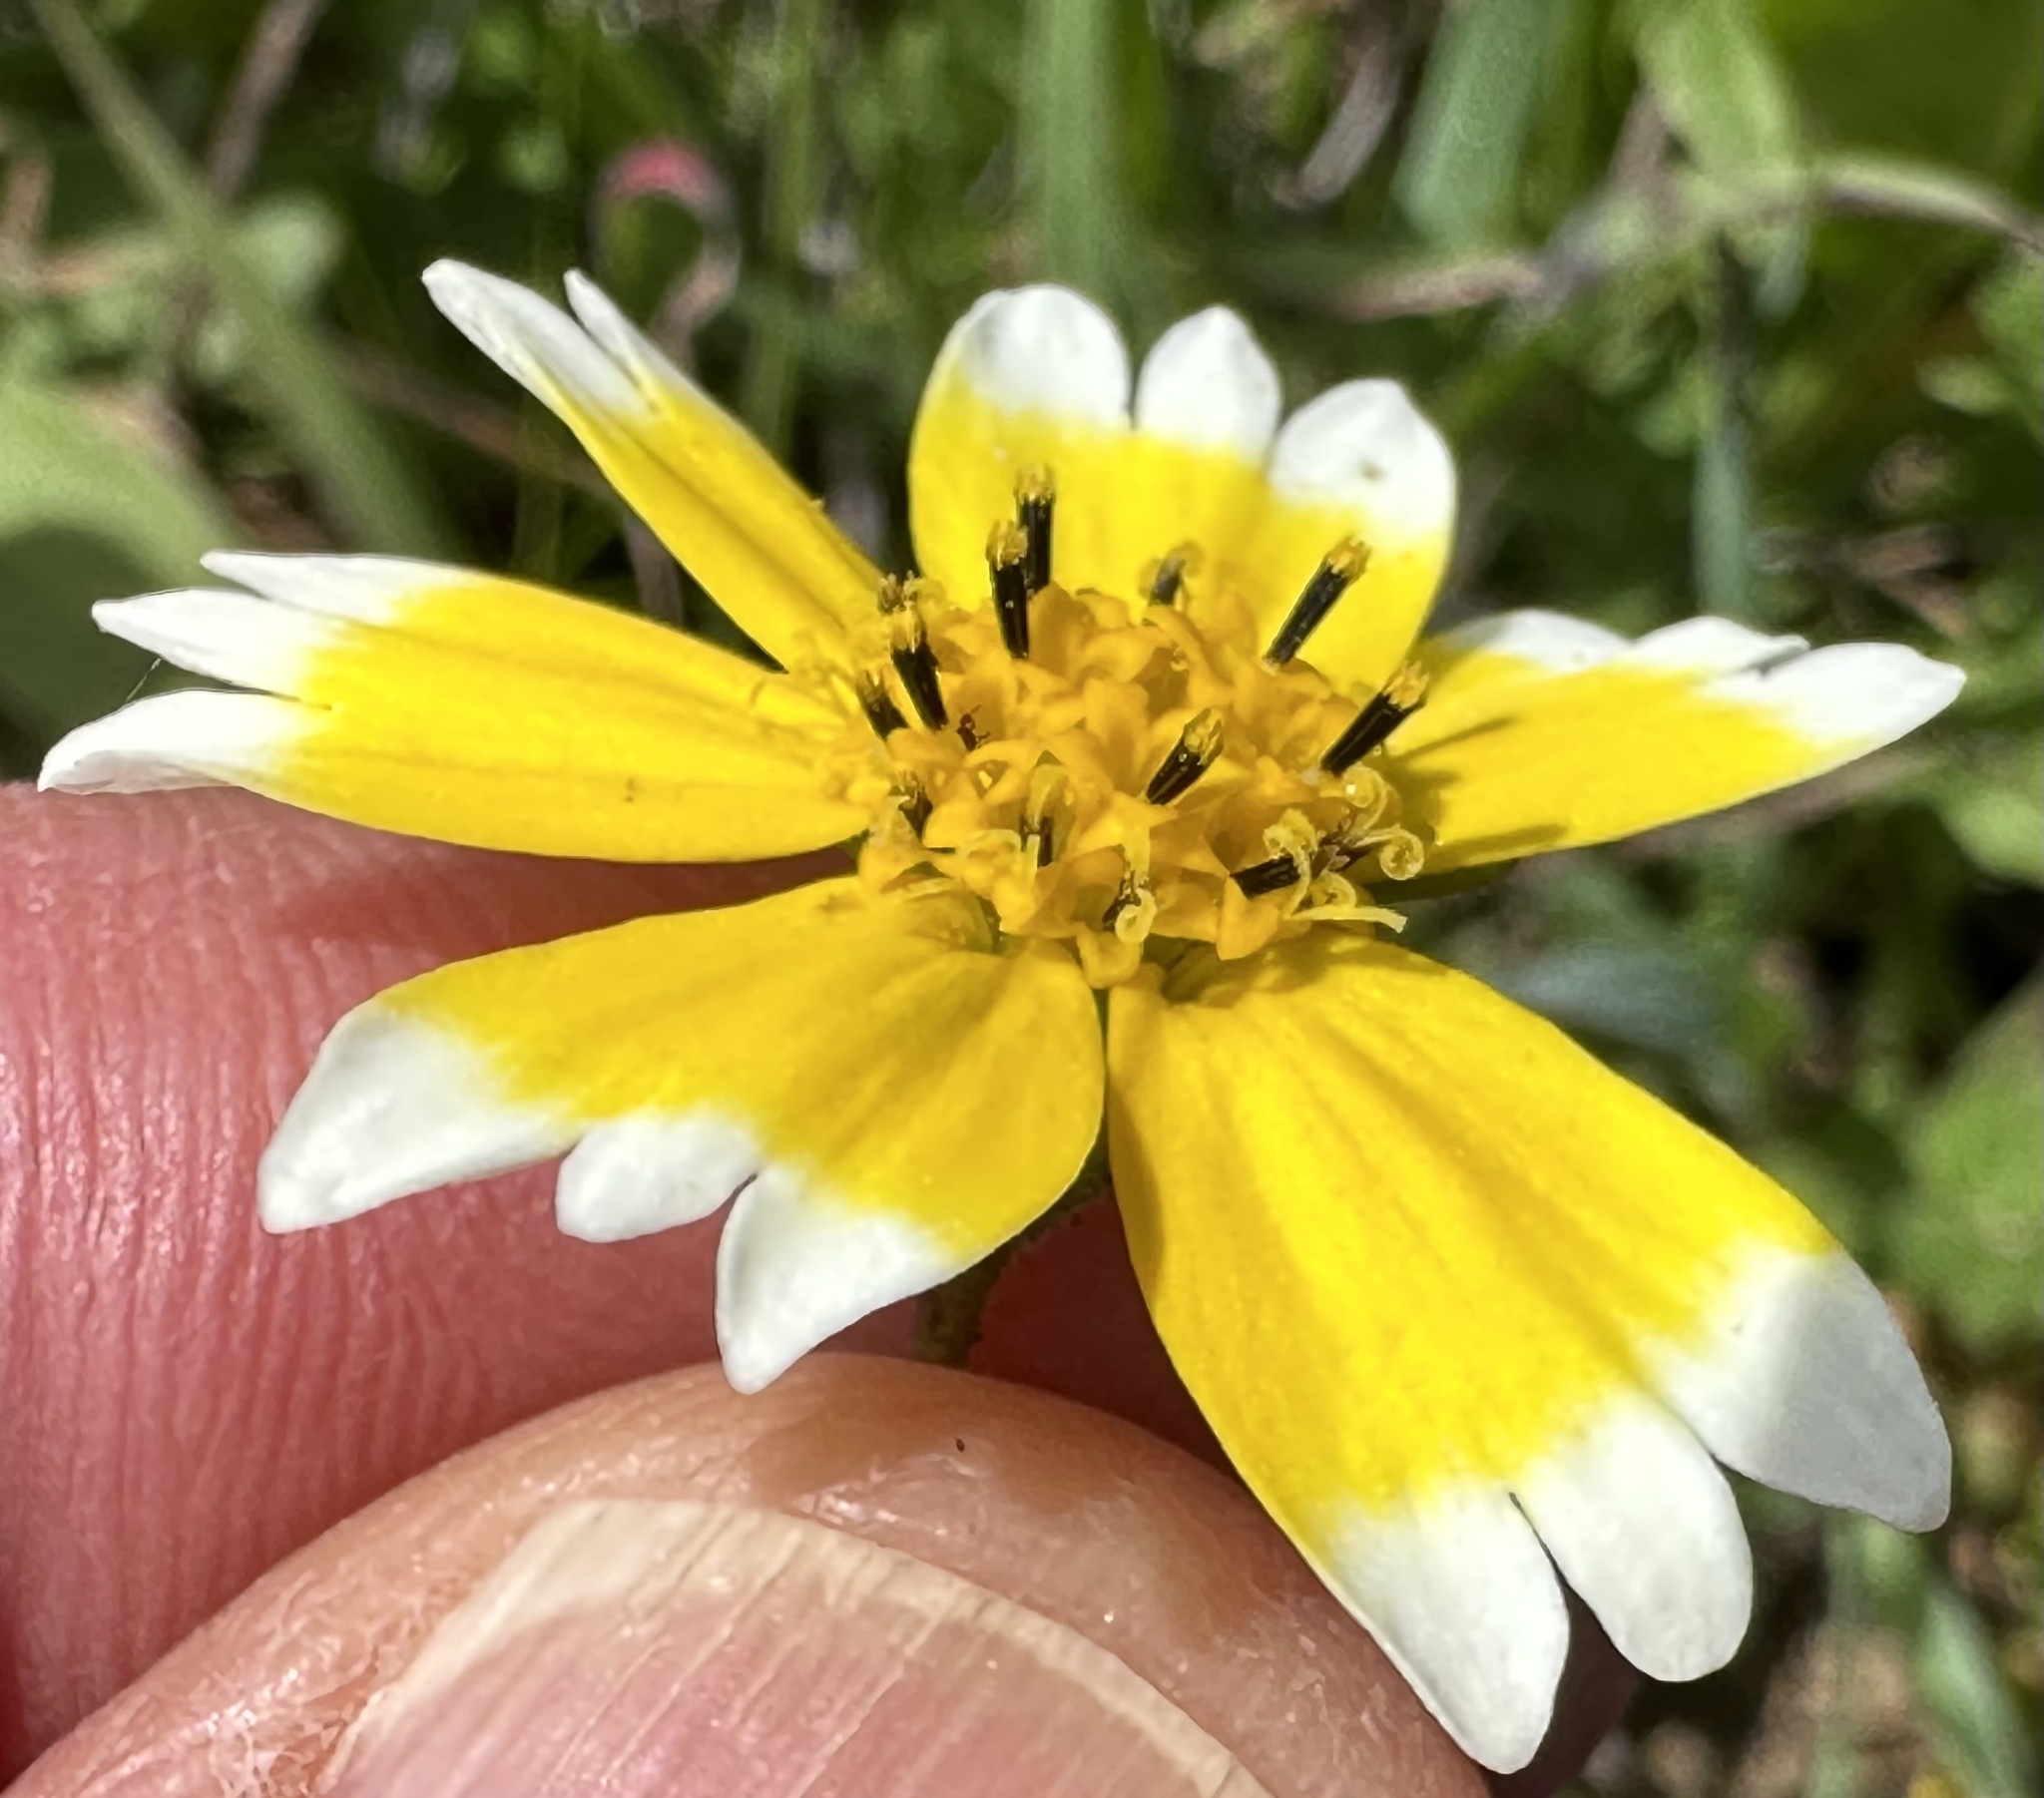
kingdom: Plantae
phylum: Tracheophyta
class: Magnoliopsida
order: Asterales
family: Asteraceae
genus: Layia
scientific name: Layia platyglossa
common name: Tidy-tips
